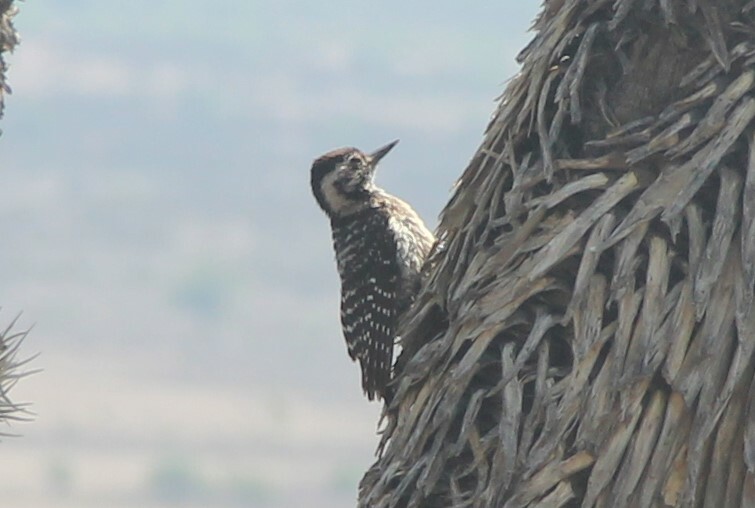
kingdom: Animalia
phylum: Chordata
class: Aves
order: Piciformes
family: Picidae
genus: Dryobates
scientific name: Dryobates scalaris
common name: Ladder-backed woodpecker
